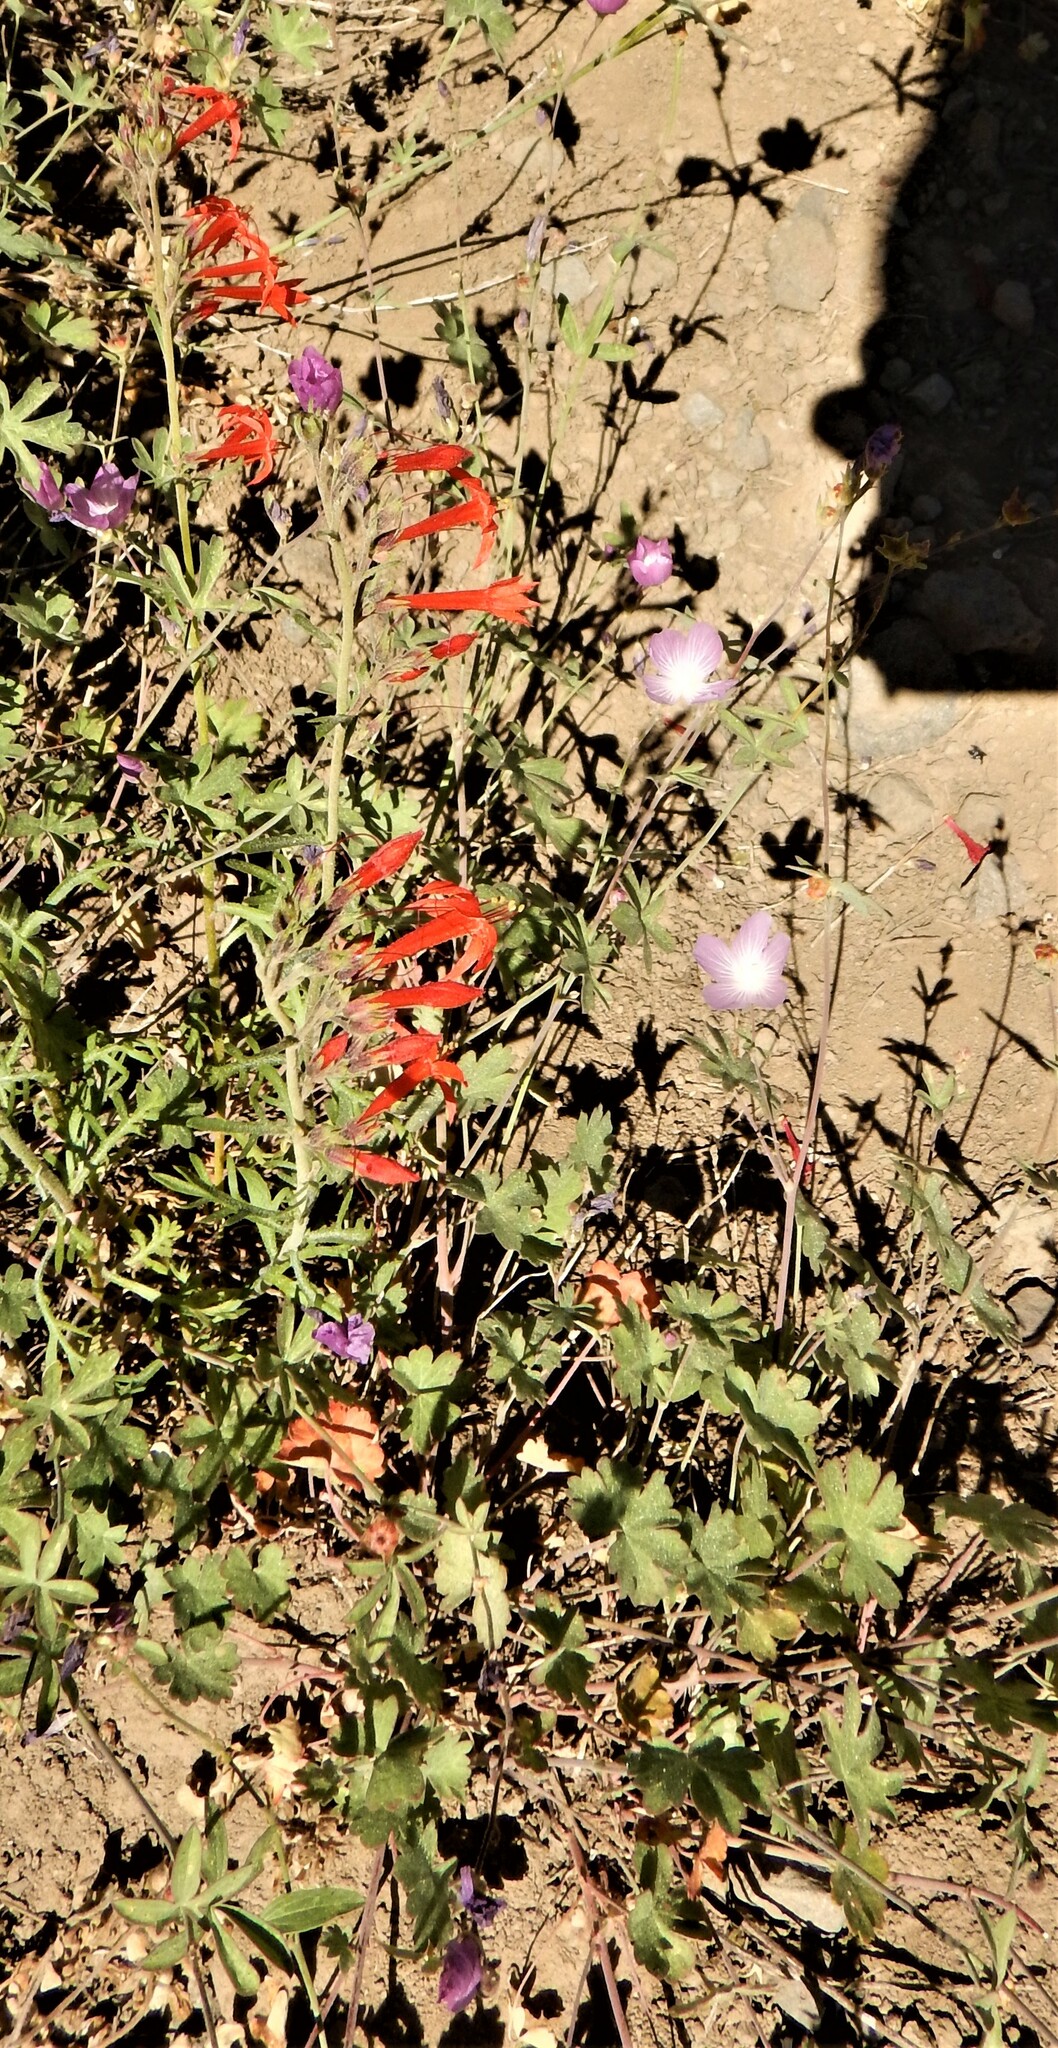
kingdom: Plantae
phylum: Tracheophyta
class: Magnoliopsida
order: Ericales
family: Polemoniaceae
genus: Ipomopsis
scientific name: Ipomopsis aggregata
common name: Scarlet gilia
